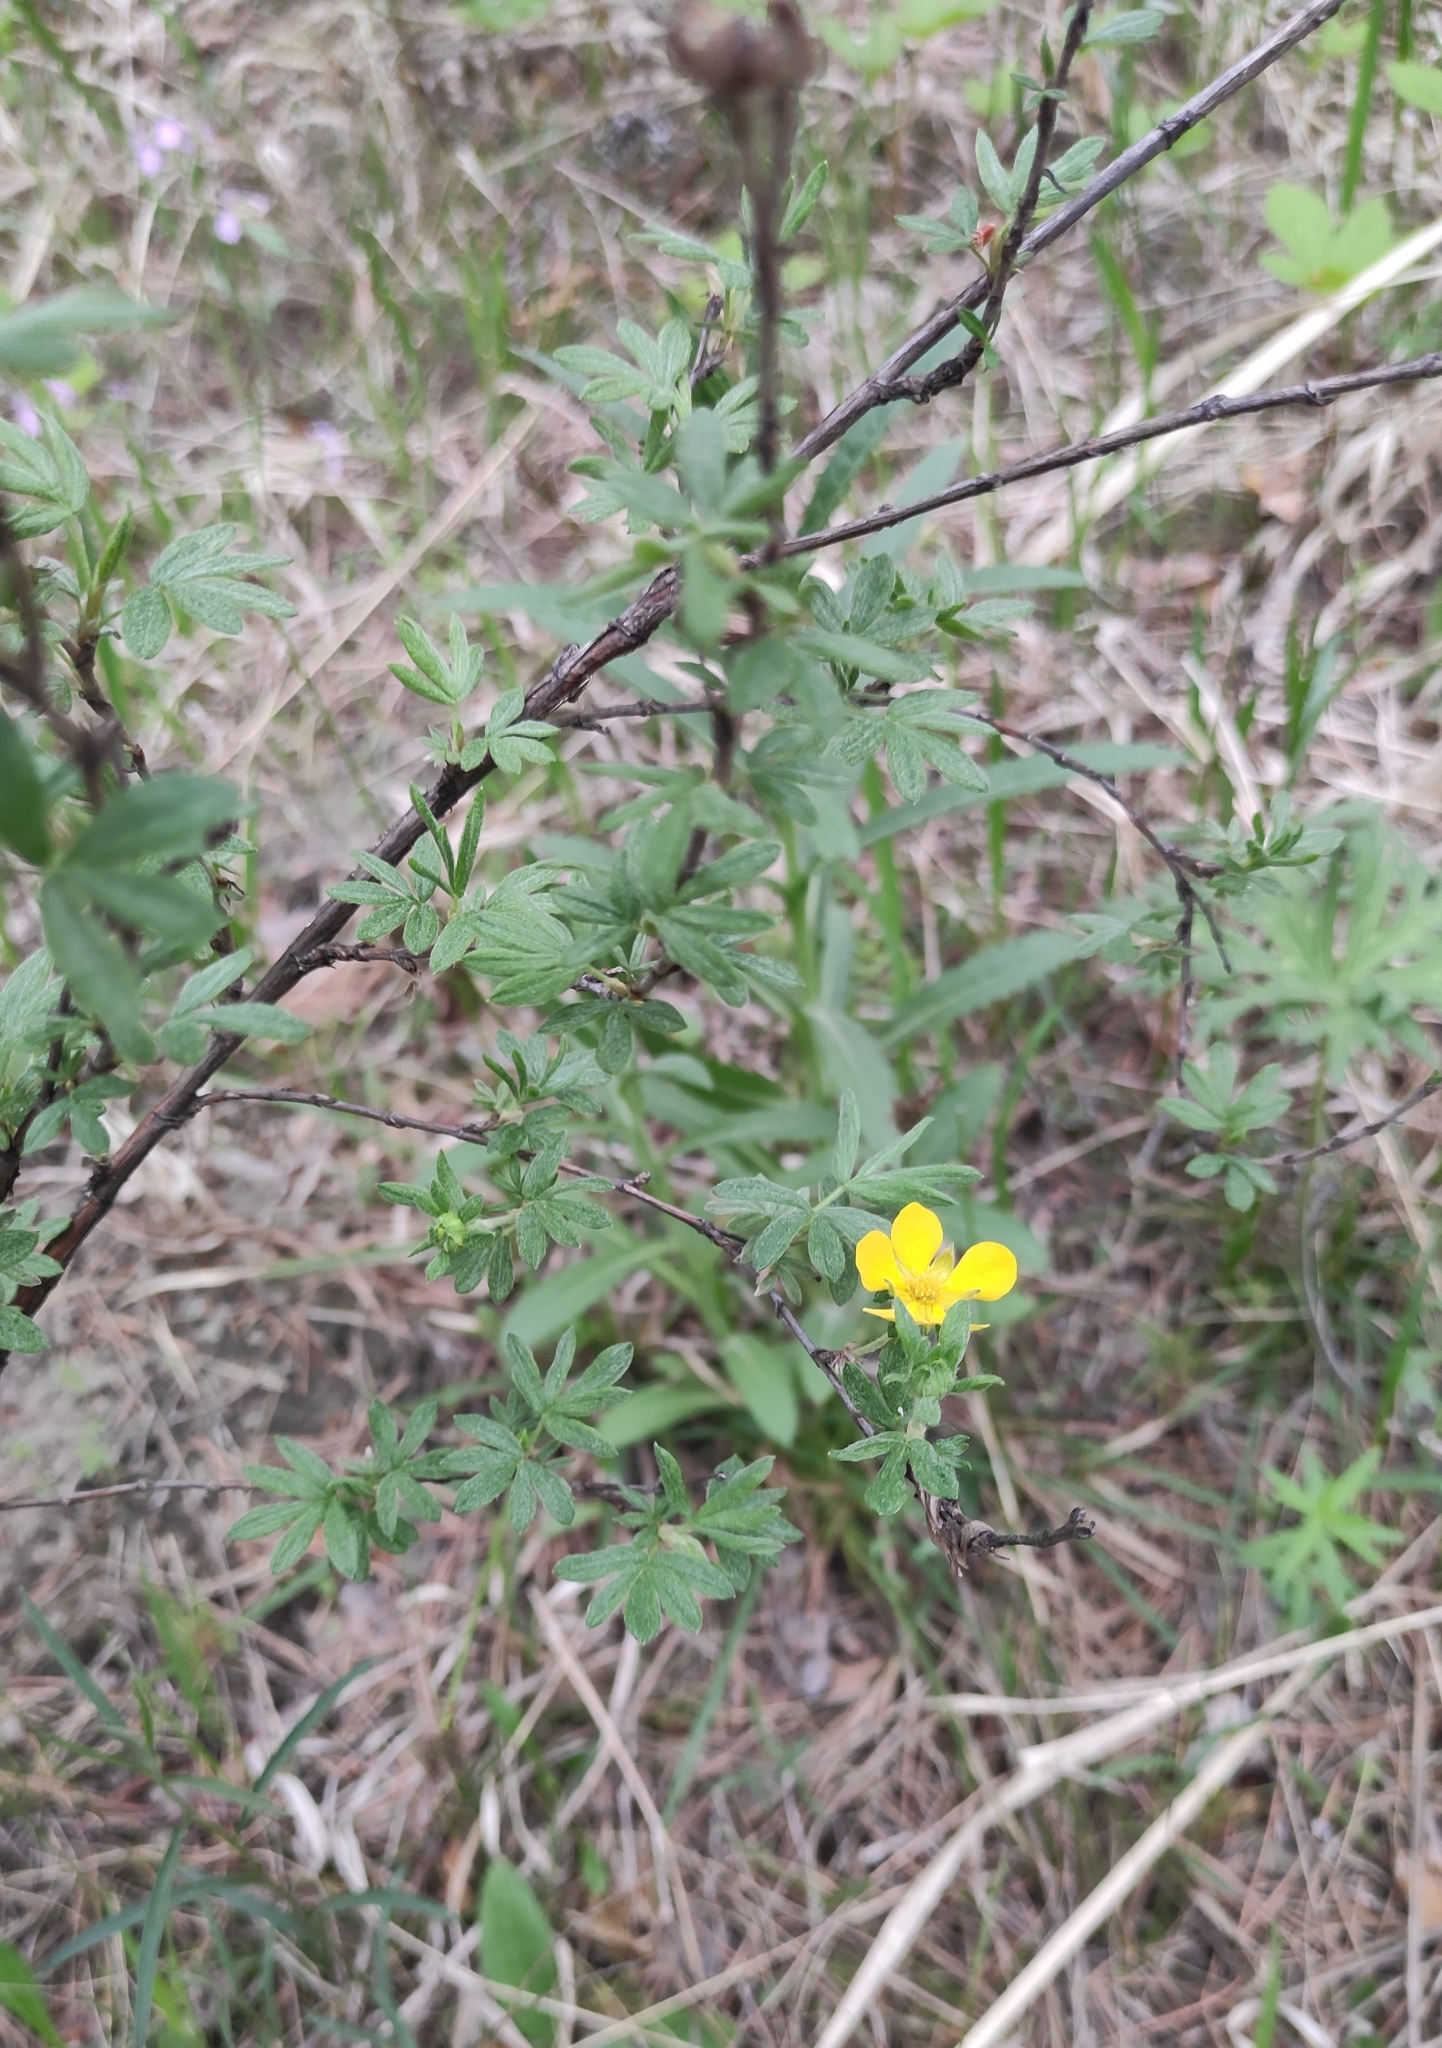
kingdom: Plantae
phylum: Tracheophyta
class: Magnoliopsida
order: Rosales
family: Rosaceae
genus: Dasiphora
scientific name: Dasiphora fruticosa
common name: Shrubby cinquefoil
